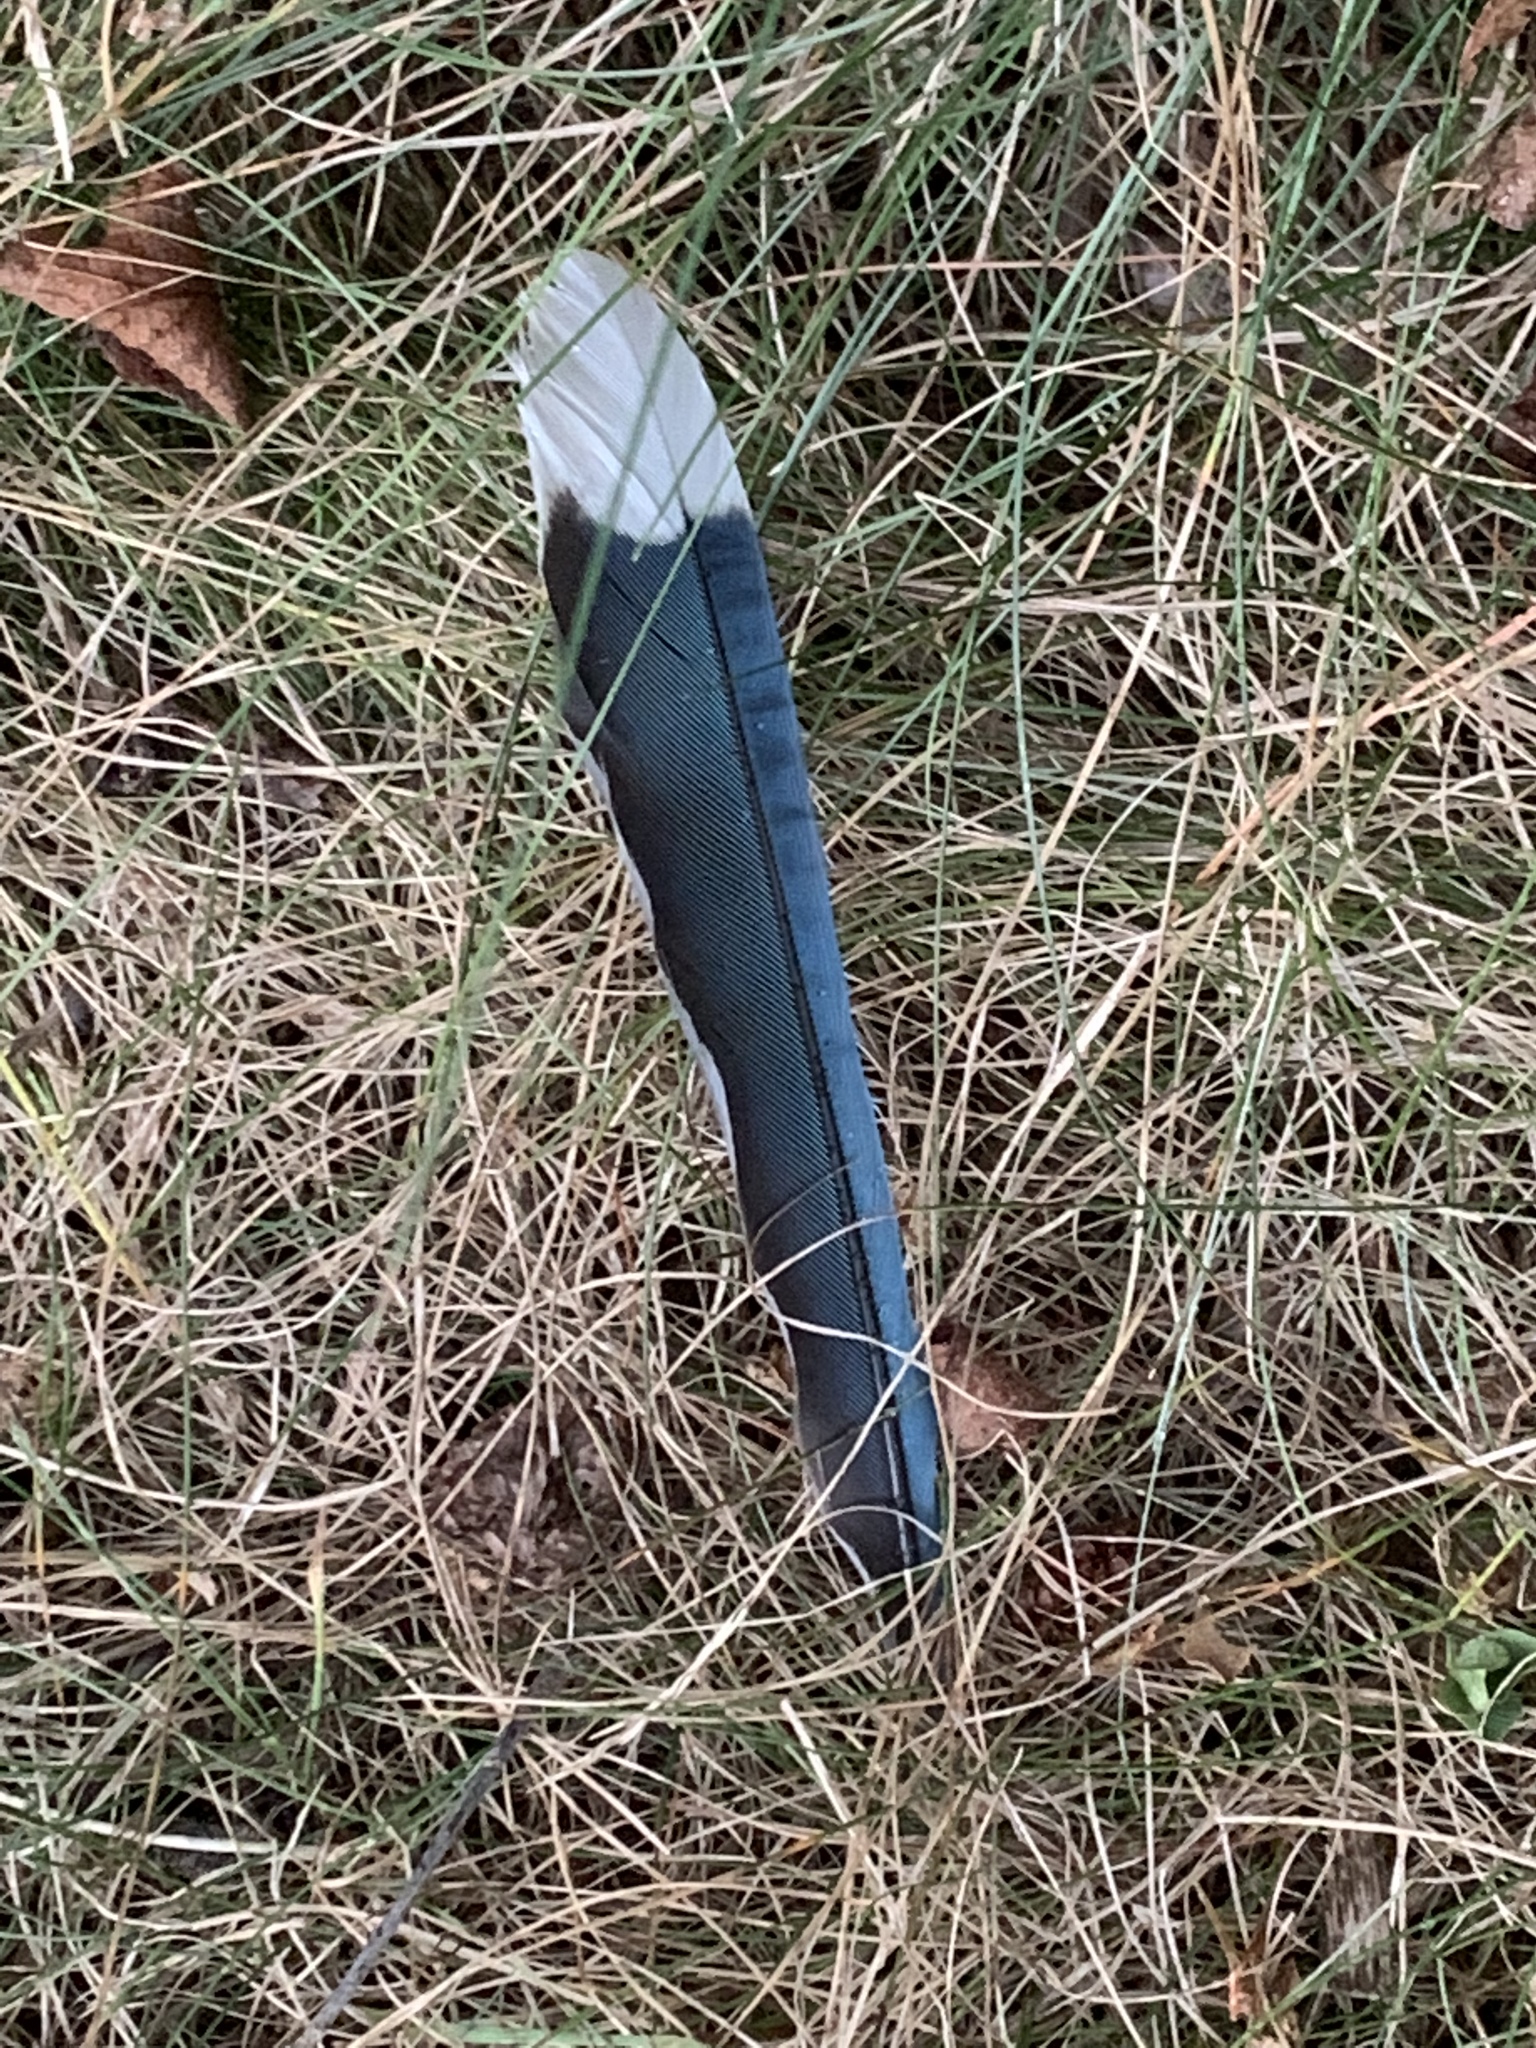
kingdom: Animalia
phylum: Chordata
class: Aves
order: Passeriformes
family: Corvidae
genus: Cyanocitta
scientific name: Cyanocitta cristata
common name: Blue jay
